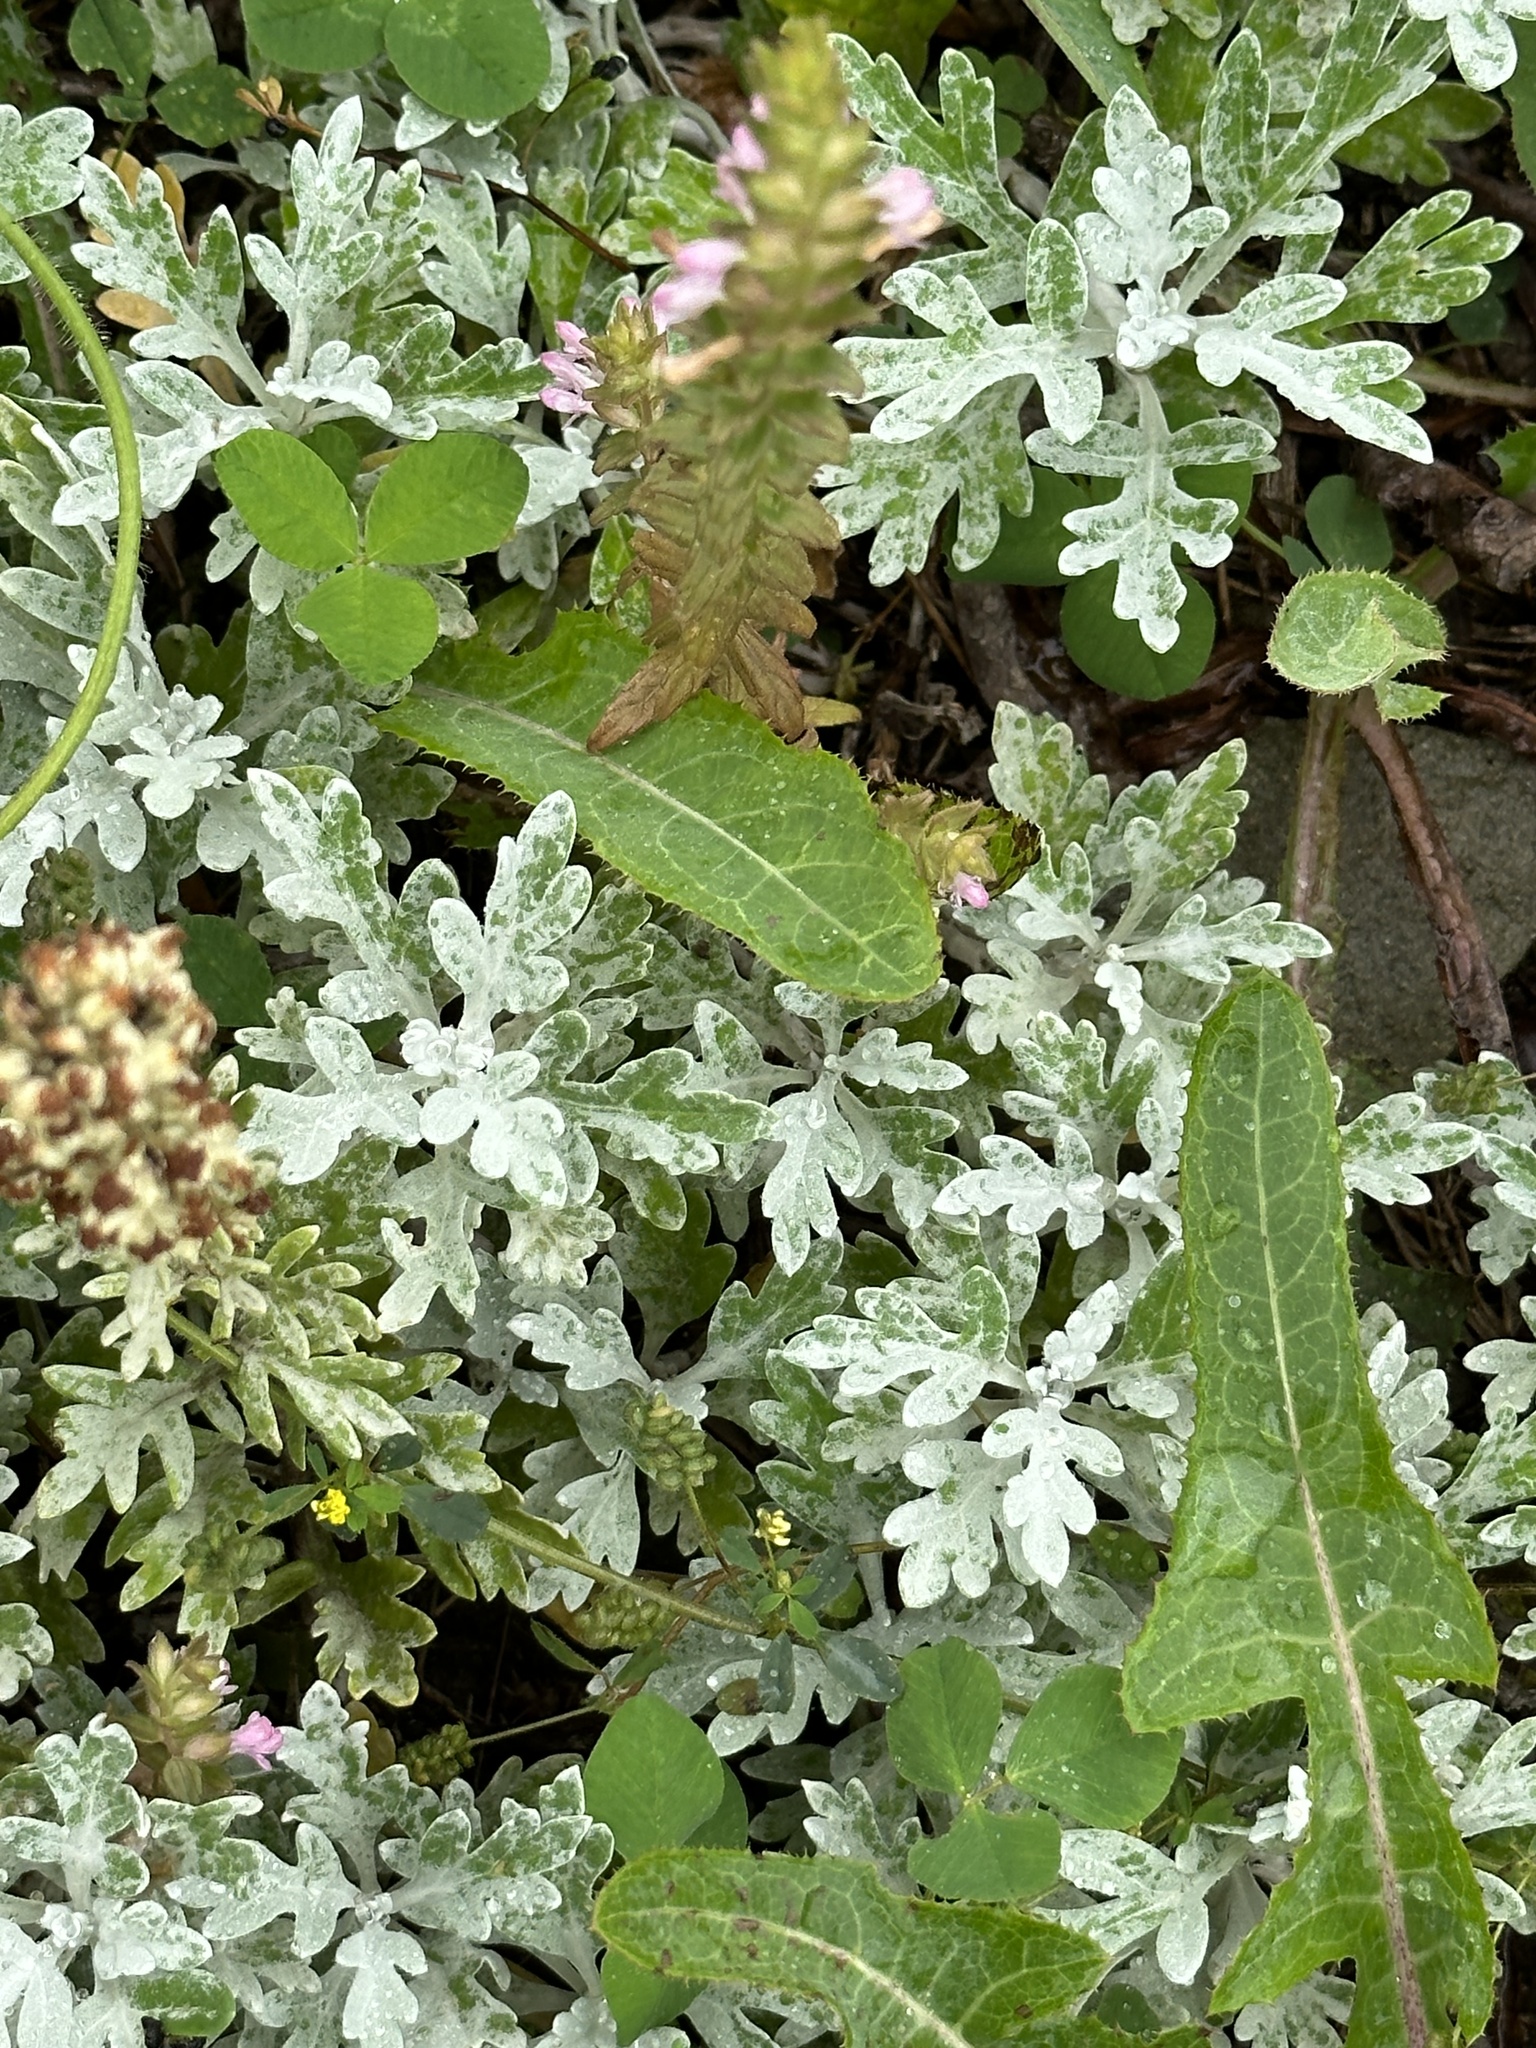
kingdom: Plantae
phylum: Tracheophyta
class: Magnoliopsida
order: Asterales
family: Asteraceae
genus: Artemisia
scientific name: Artemisia stelleriana
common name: Beach wormwood
